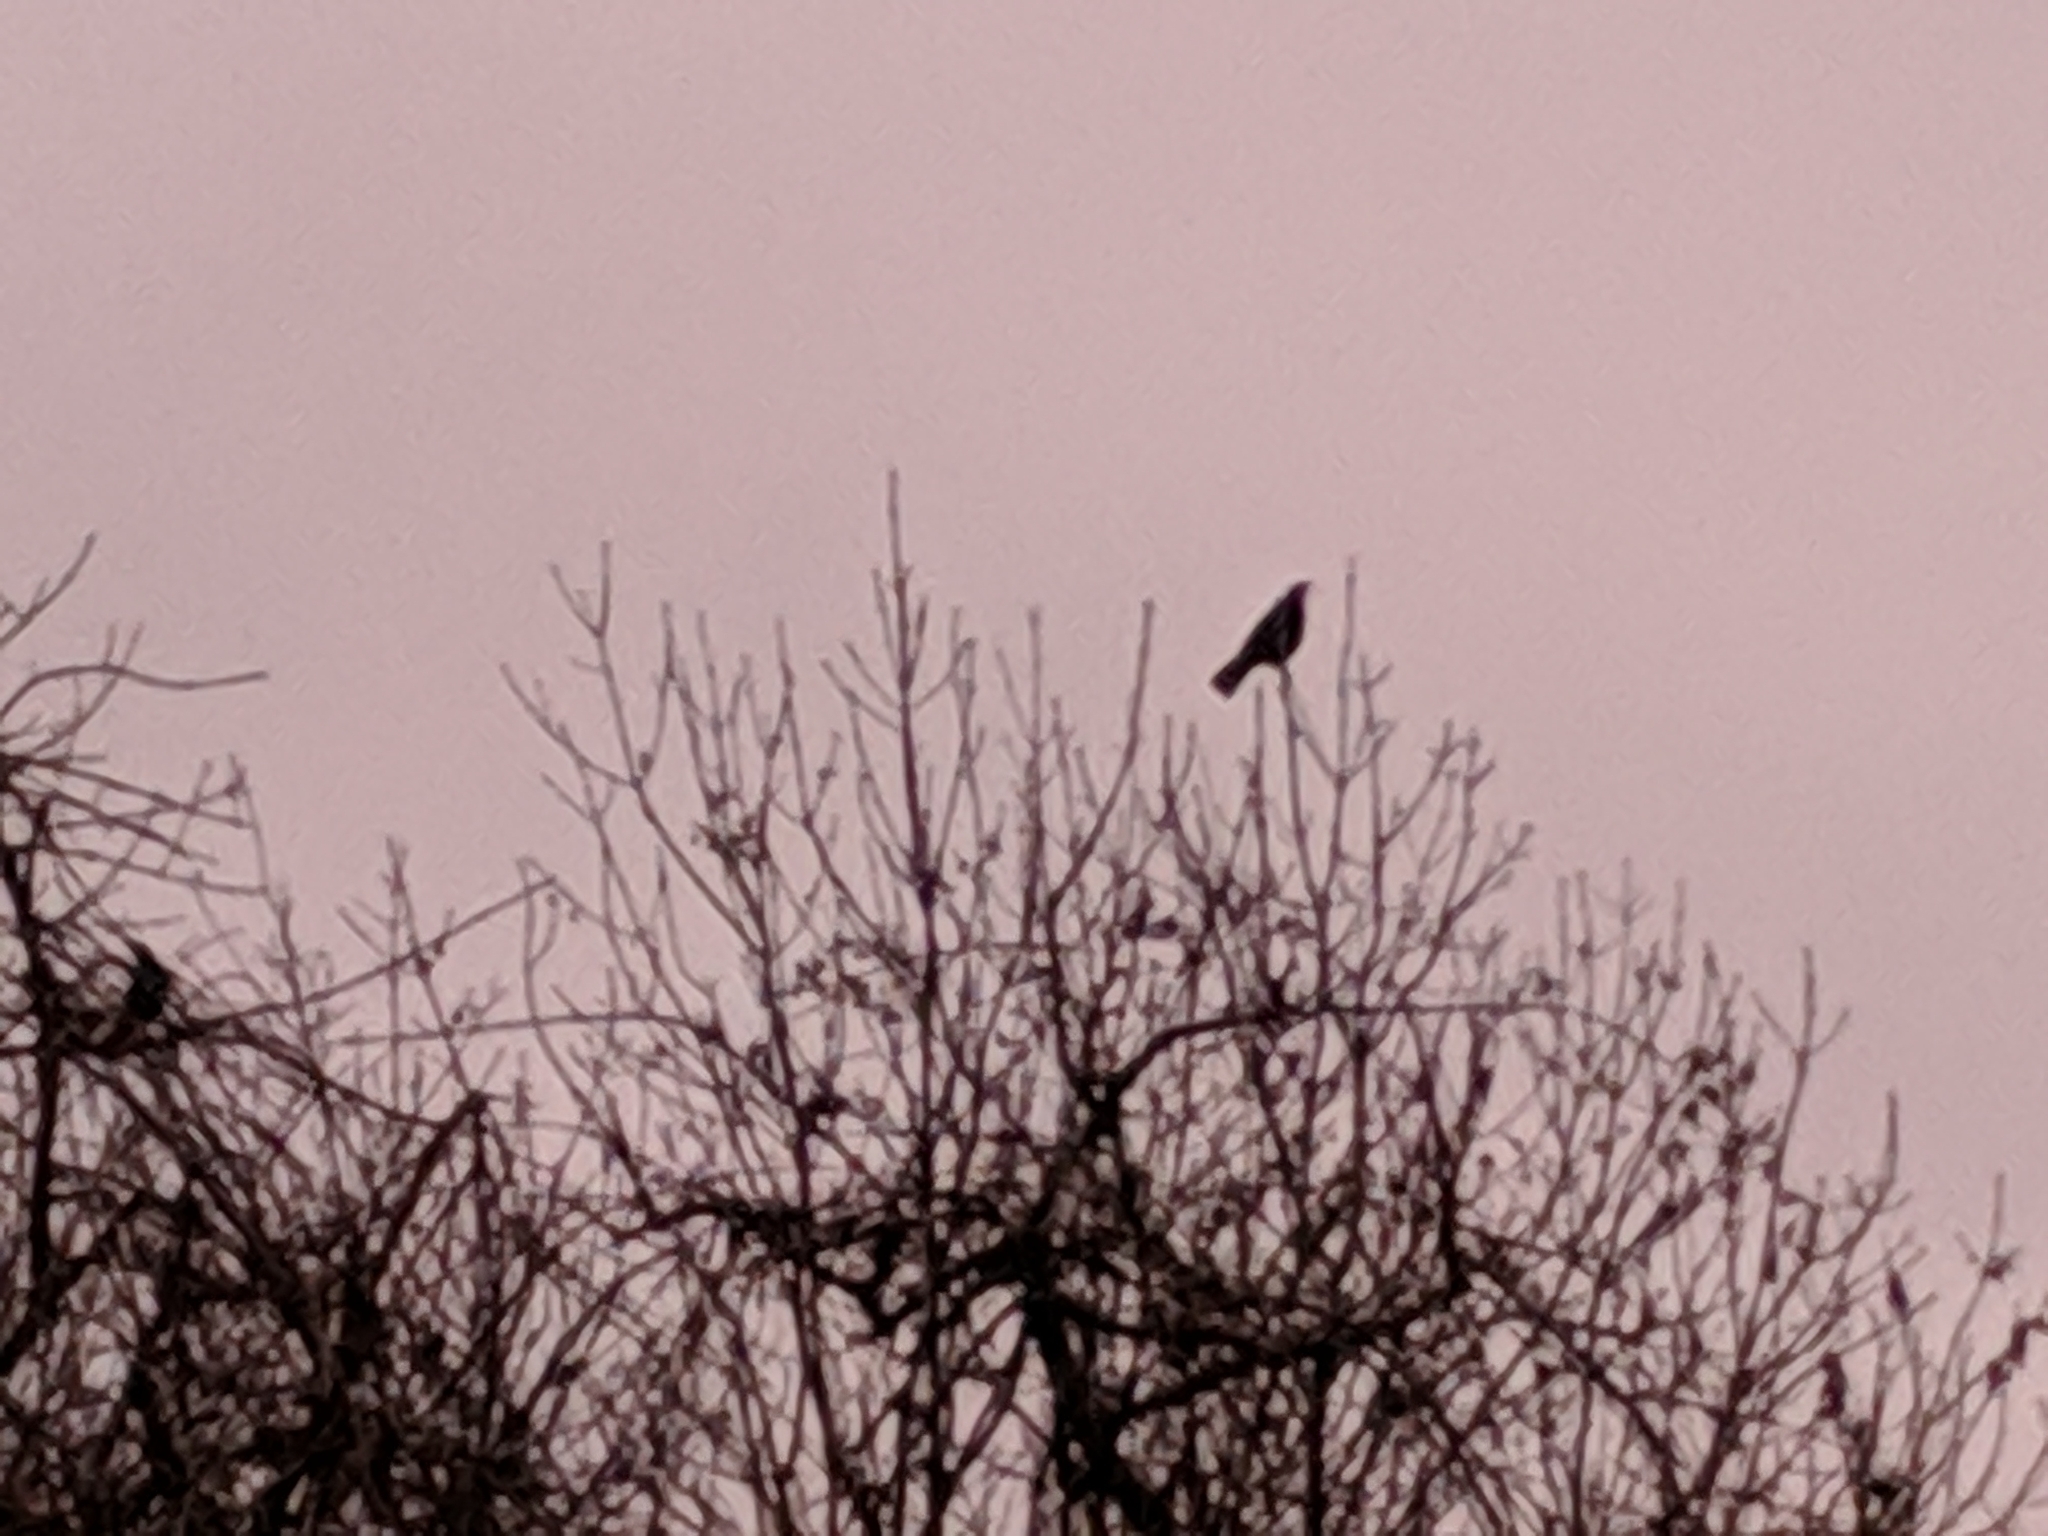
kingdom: Animalia
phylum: Chordata
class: Aves
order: Passeriformes
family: Corvidae
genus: Corvus
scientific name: Corvus corone
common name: Carrion crow
